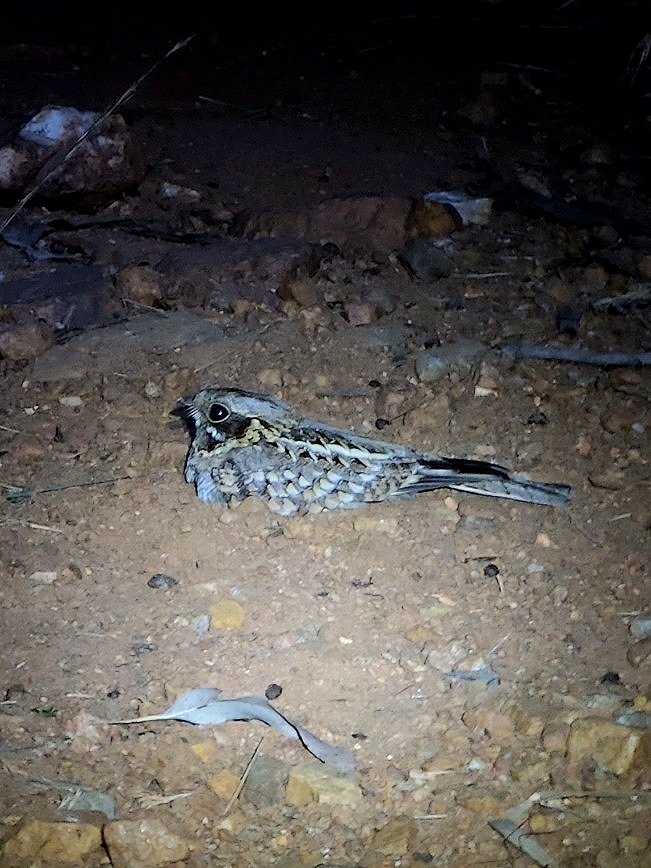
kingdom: Animalia
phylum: Chordata
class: Aves
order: Caprimulgiformes
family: Caprimulgidae
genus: Caprimulgus
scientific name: Caprimulgus asiaticus
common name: Indian nightjar
